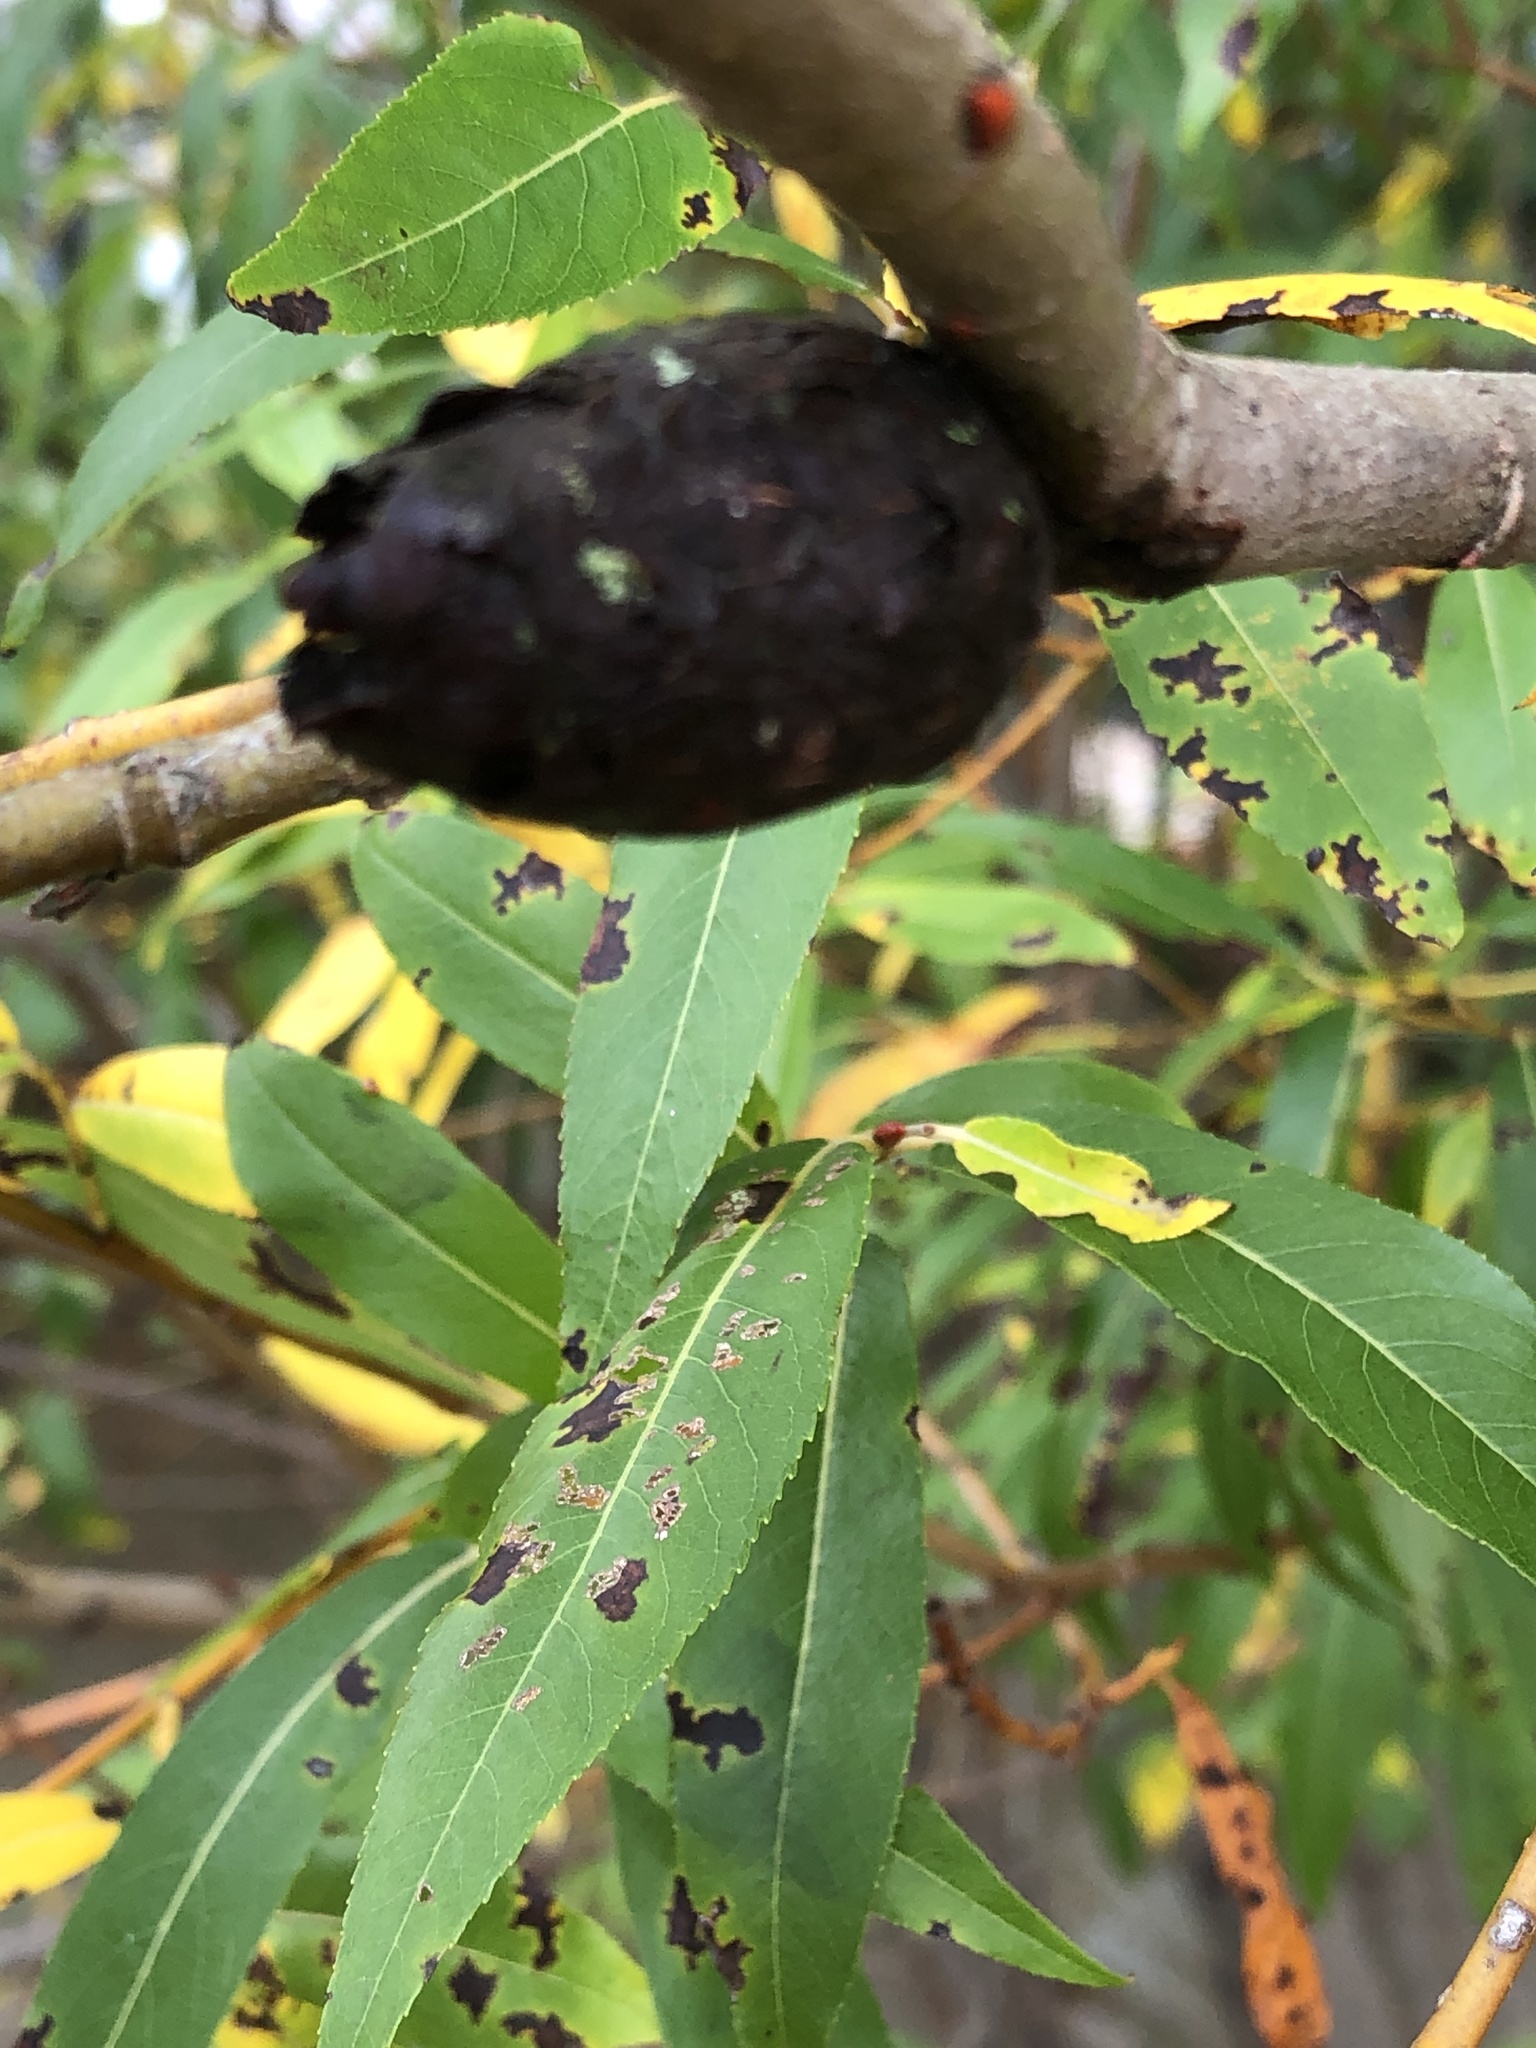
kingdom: Animalia
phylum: Arthropoda
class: Insecta
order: Diptera
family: Cecidomyiidae
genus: Rabdophaga
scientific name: Rabdophaga strobiloides
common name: Willow pinecone gall midge
